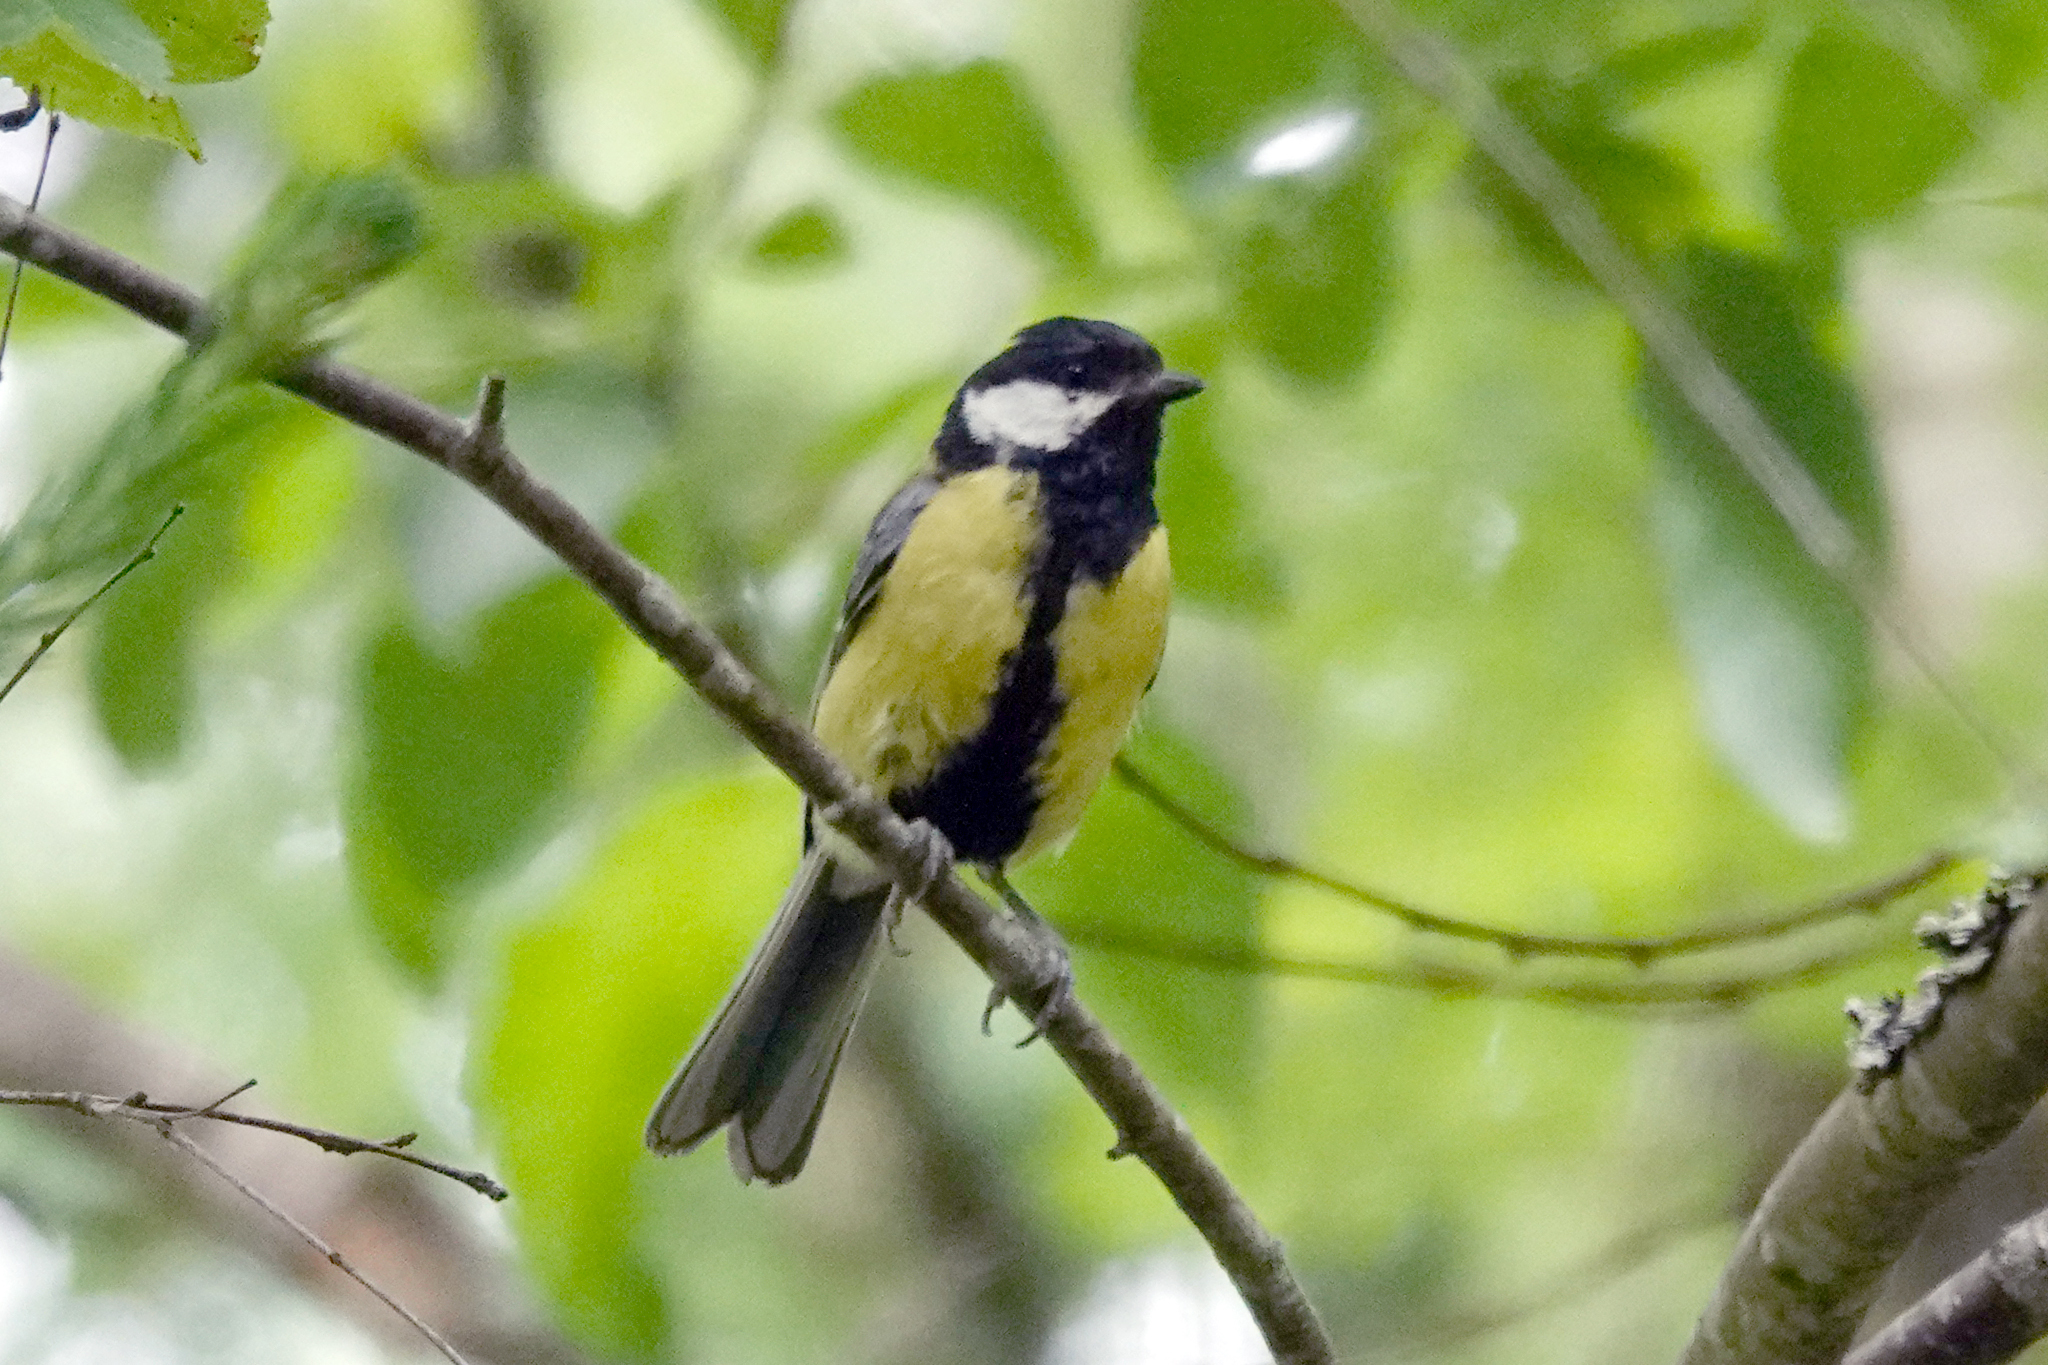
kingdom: Animalia
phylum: Chordata
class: Aves
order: Passeriformes
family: Paridae
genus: Parus
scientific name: Parus major
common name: Great tit
